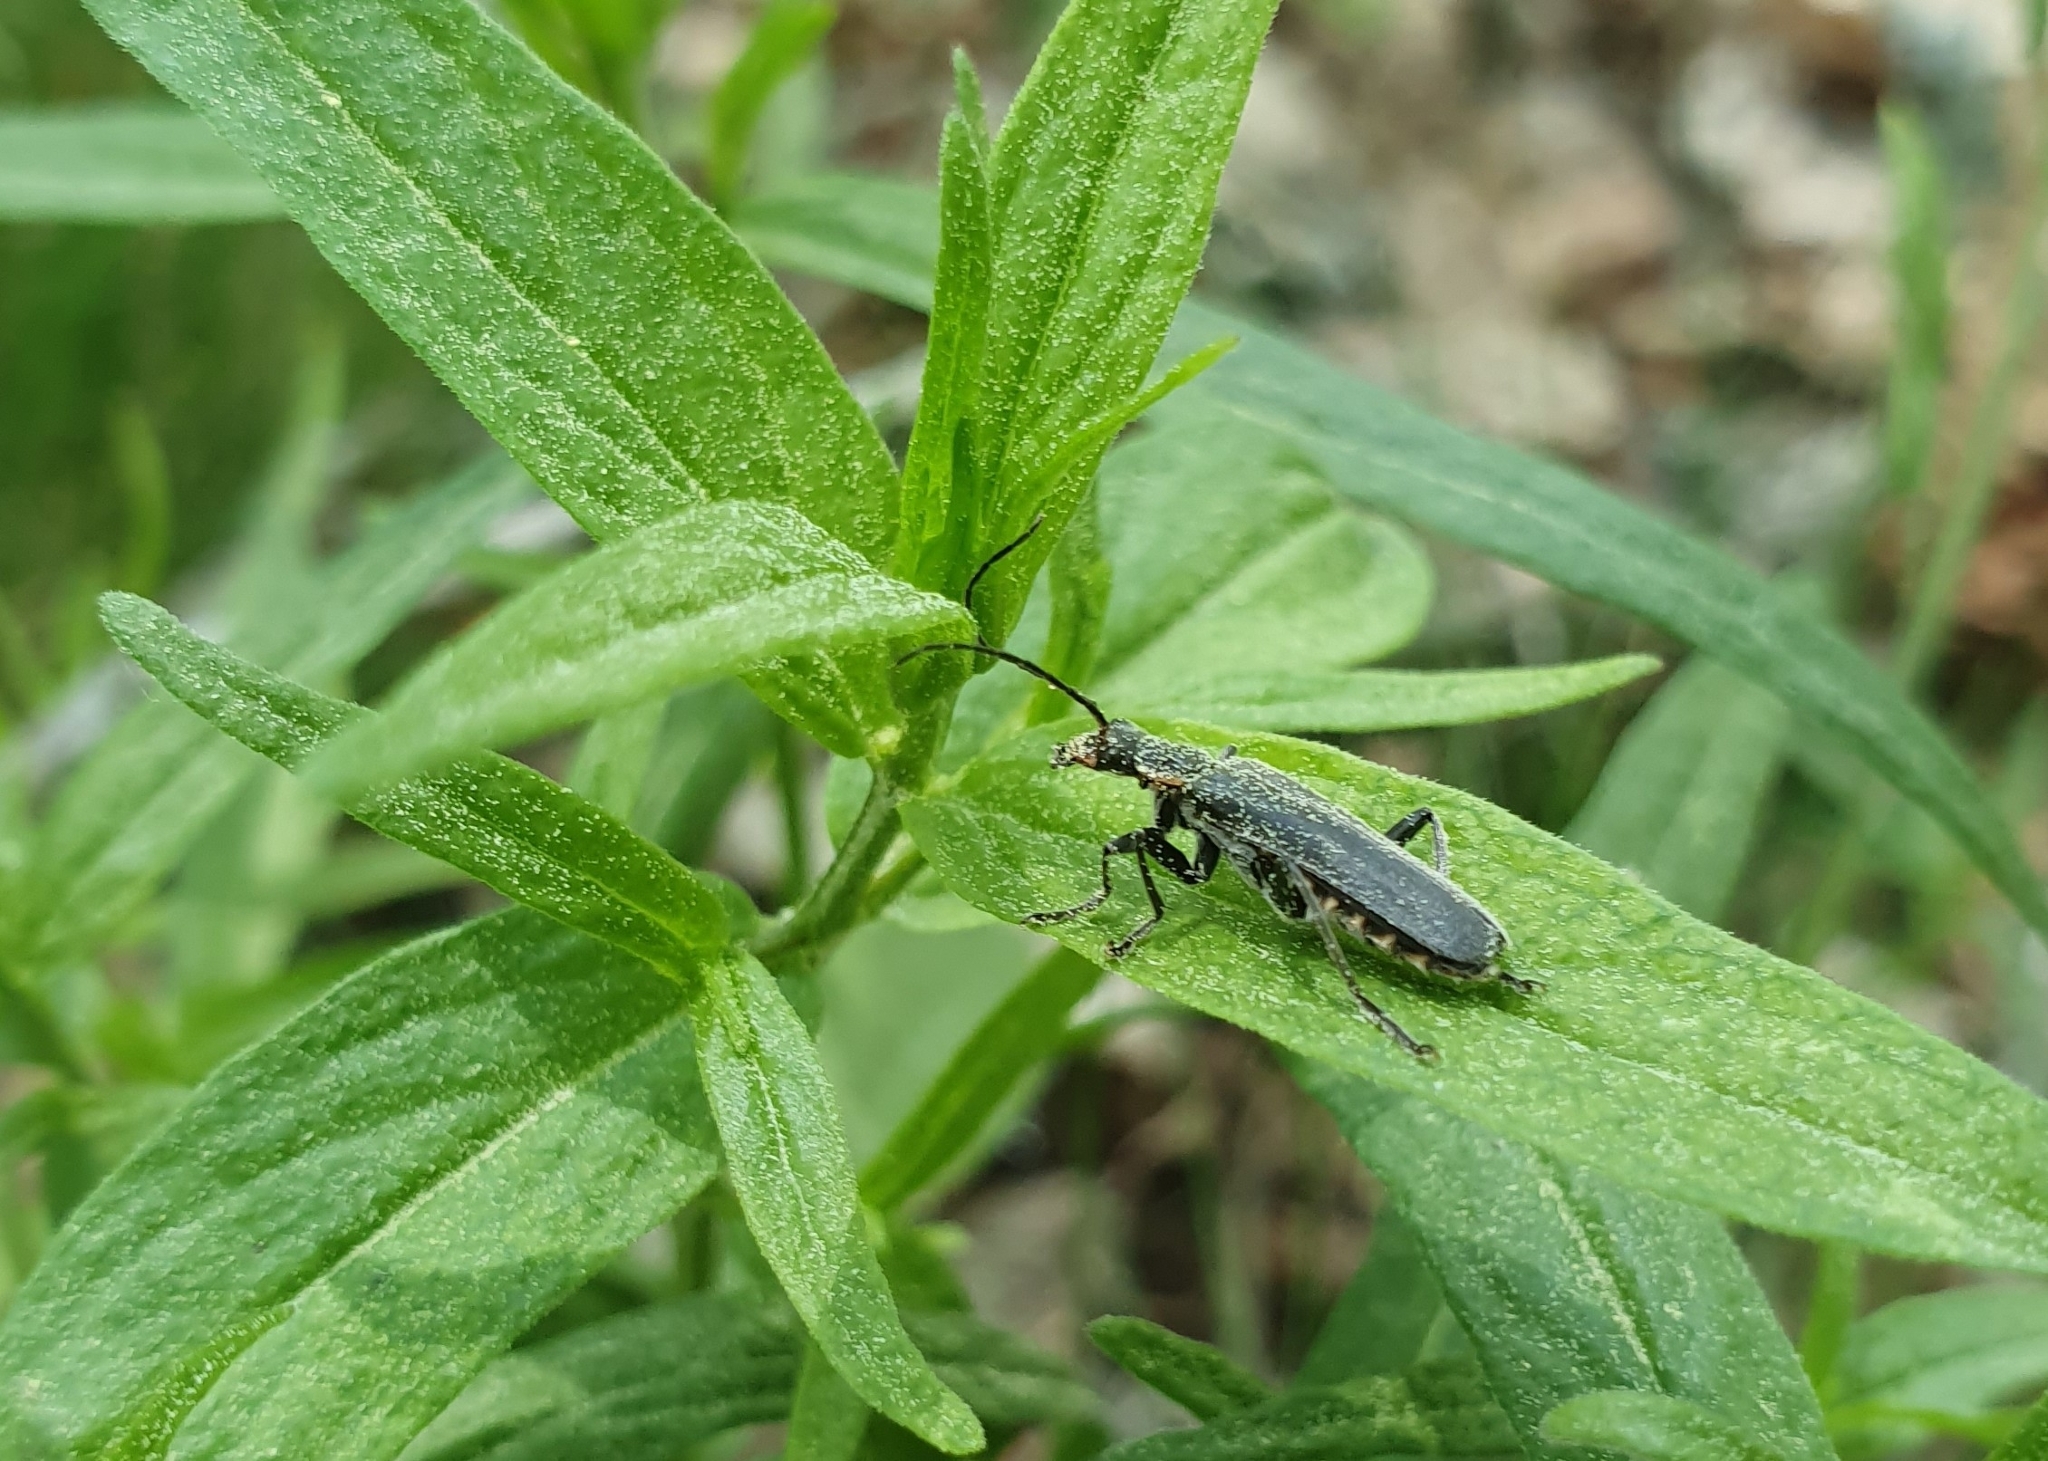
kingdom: Animalia
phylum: Arthropoda
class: Insecta
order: Coleoptera
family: Cantharidae
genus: Cantharis
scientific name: Cantharis obscura
